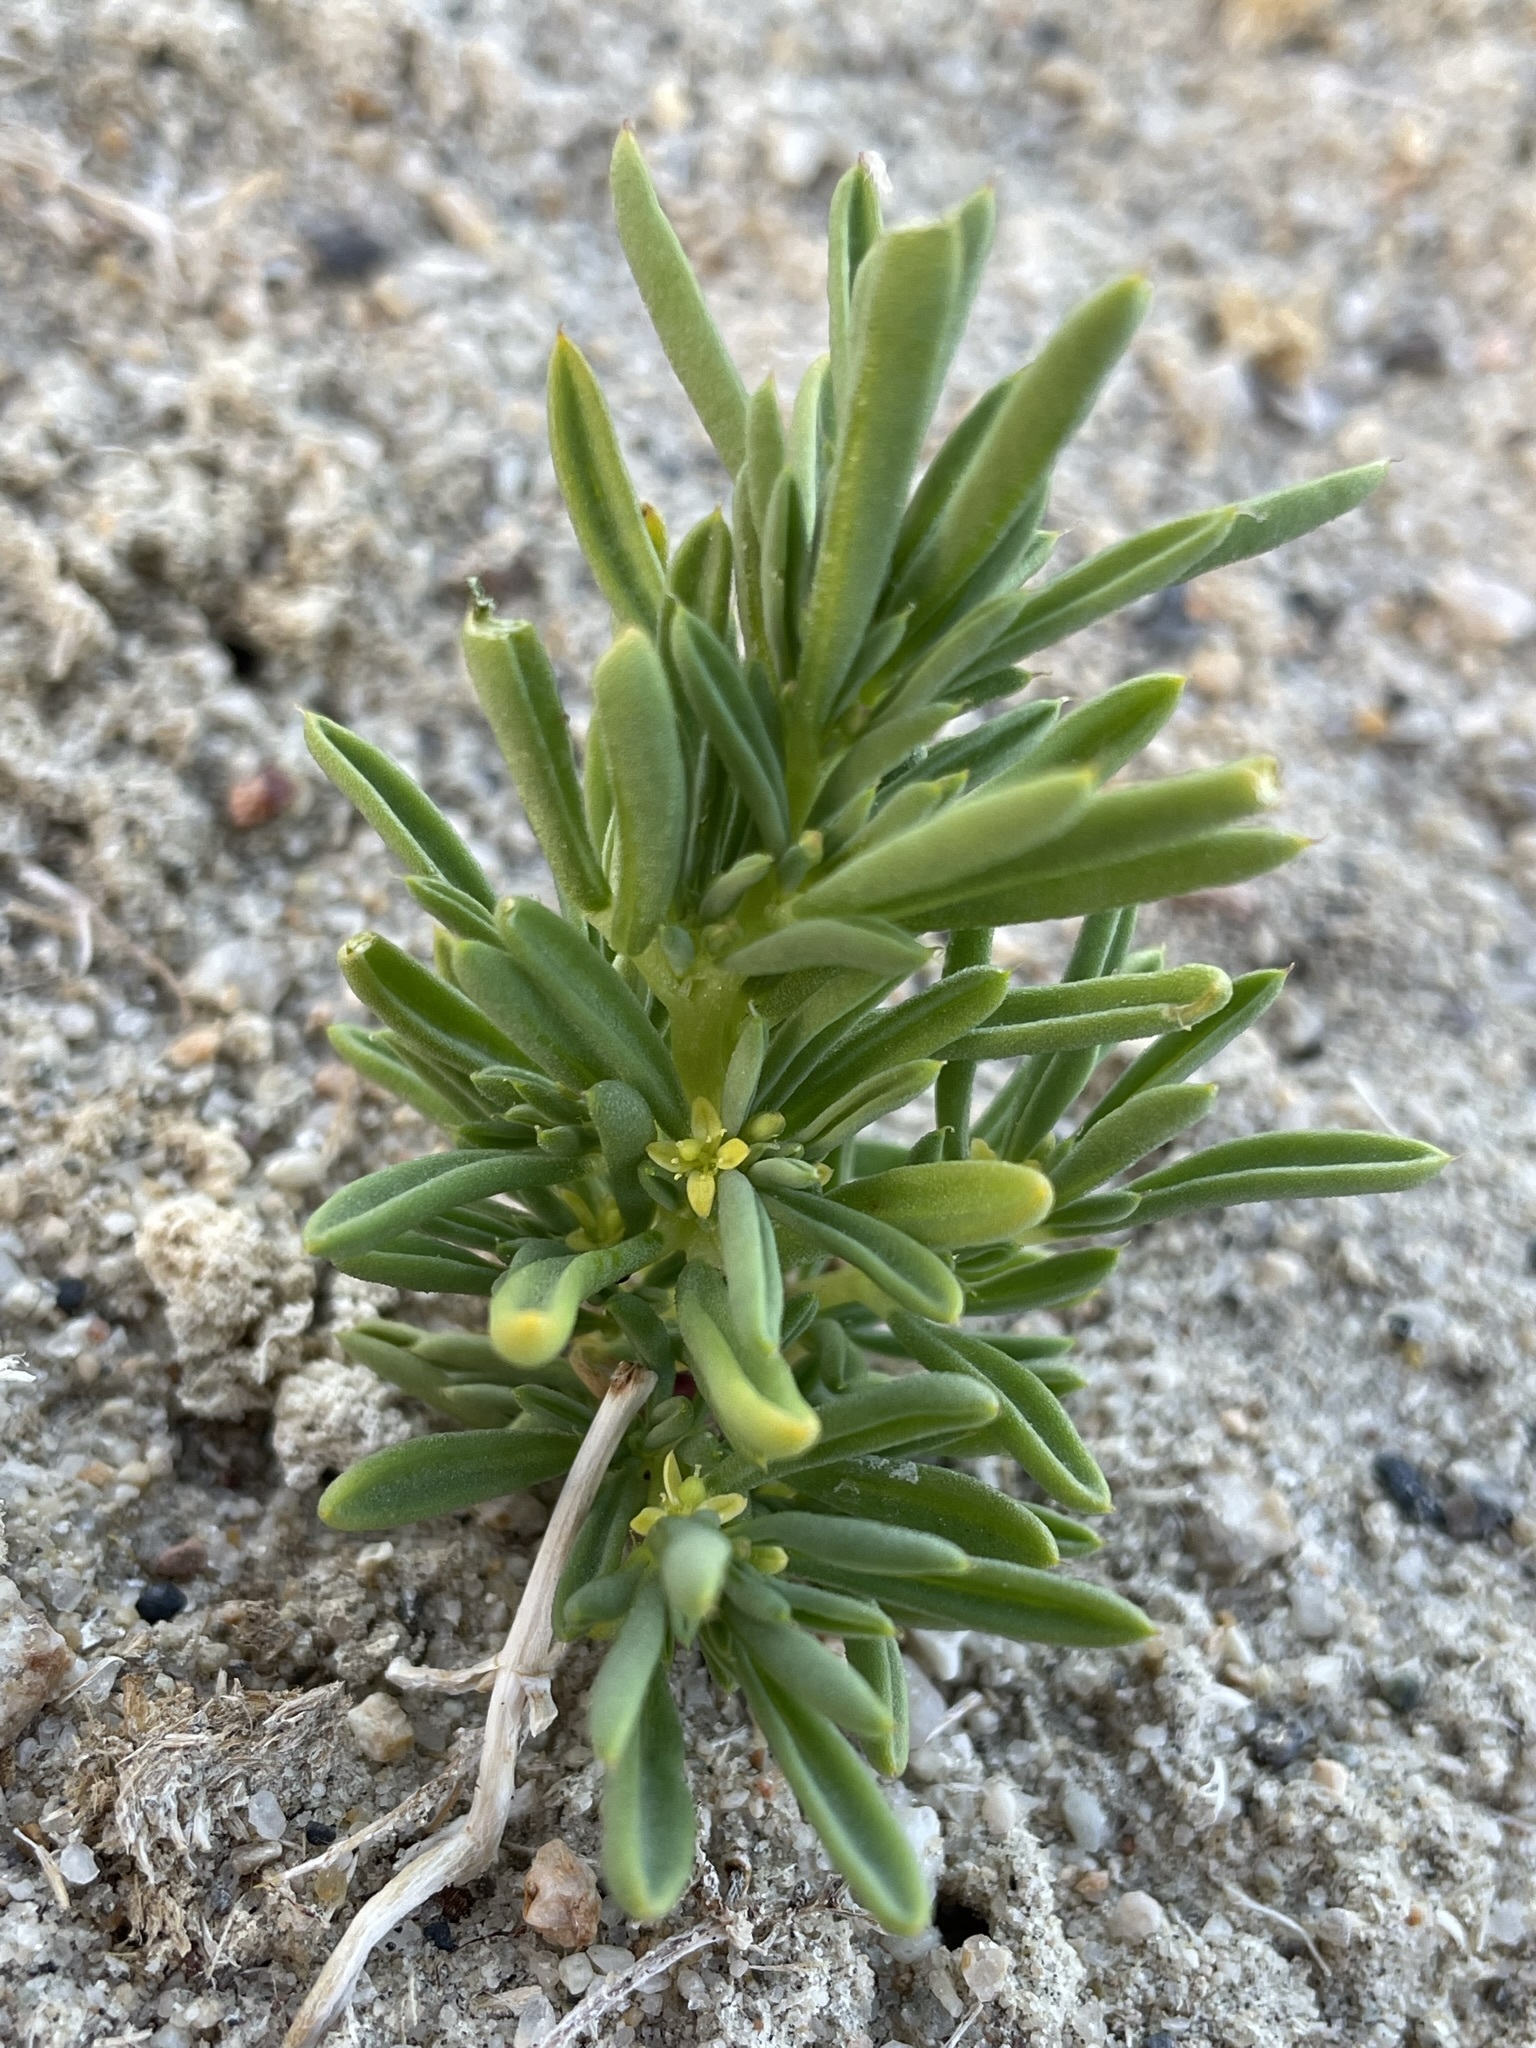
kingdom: Plantae
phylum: Tracheophyta
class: Magnoliopsida
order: Brassicales
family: Cleomaceae
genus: Cleomella
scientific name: Cleomella brevipes
